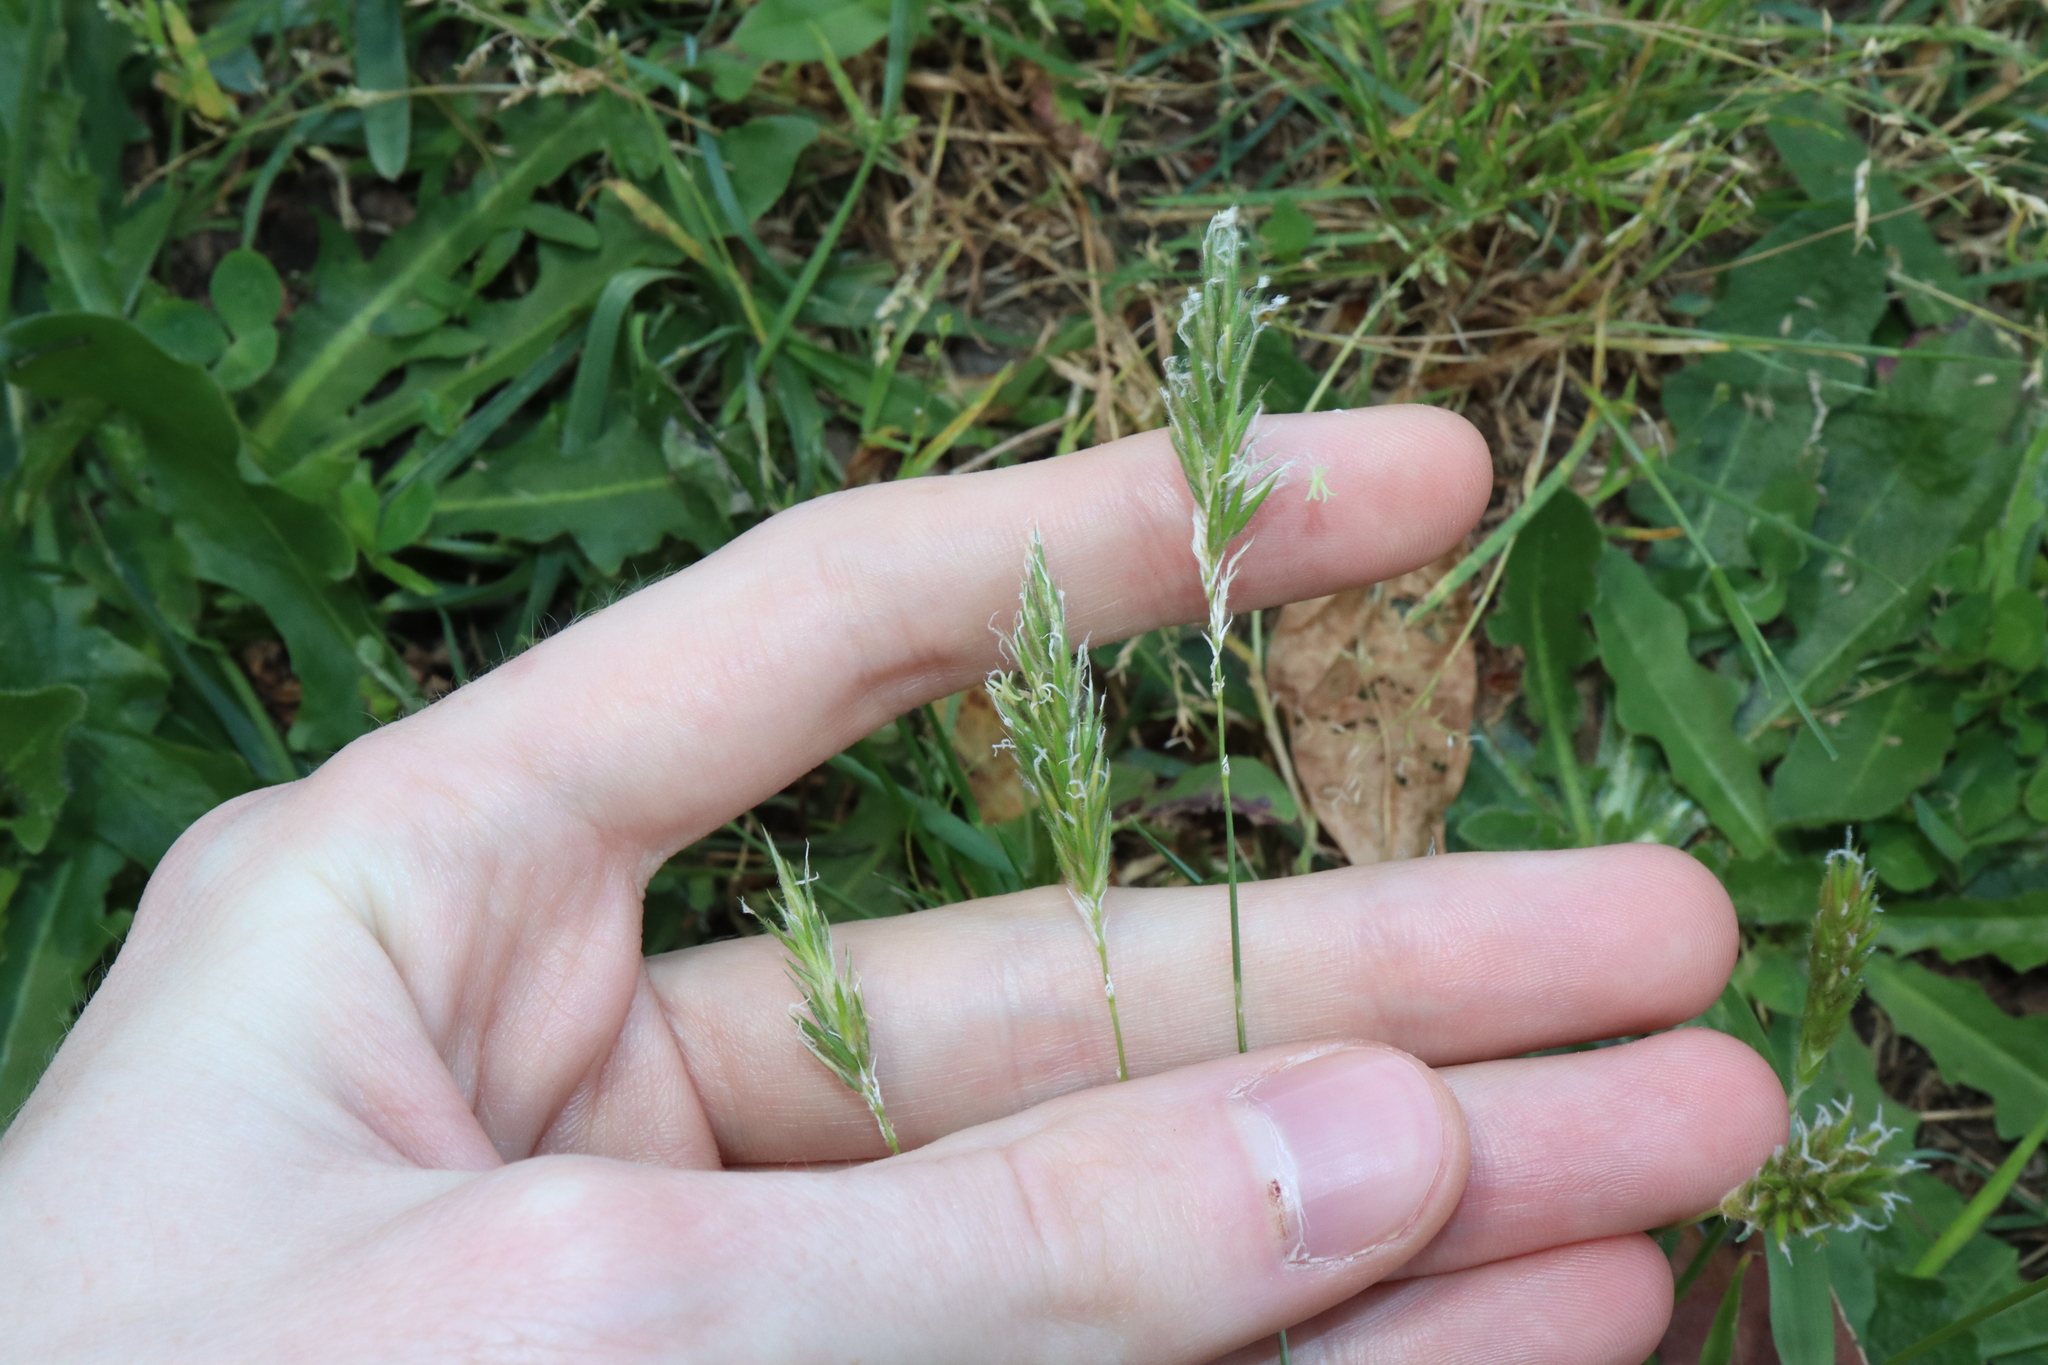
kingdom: Plantae
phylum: Tracheophyta
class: Liliopsida
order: Poales
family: Poaceae
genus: Anthoxanthum
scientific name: Anthoxanthum odoratum
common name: Sweet vernalgrass
